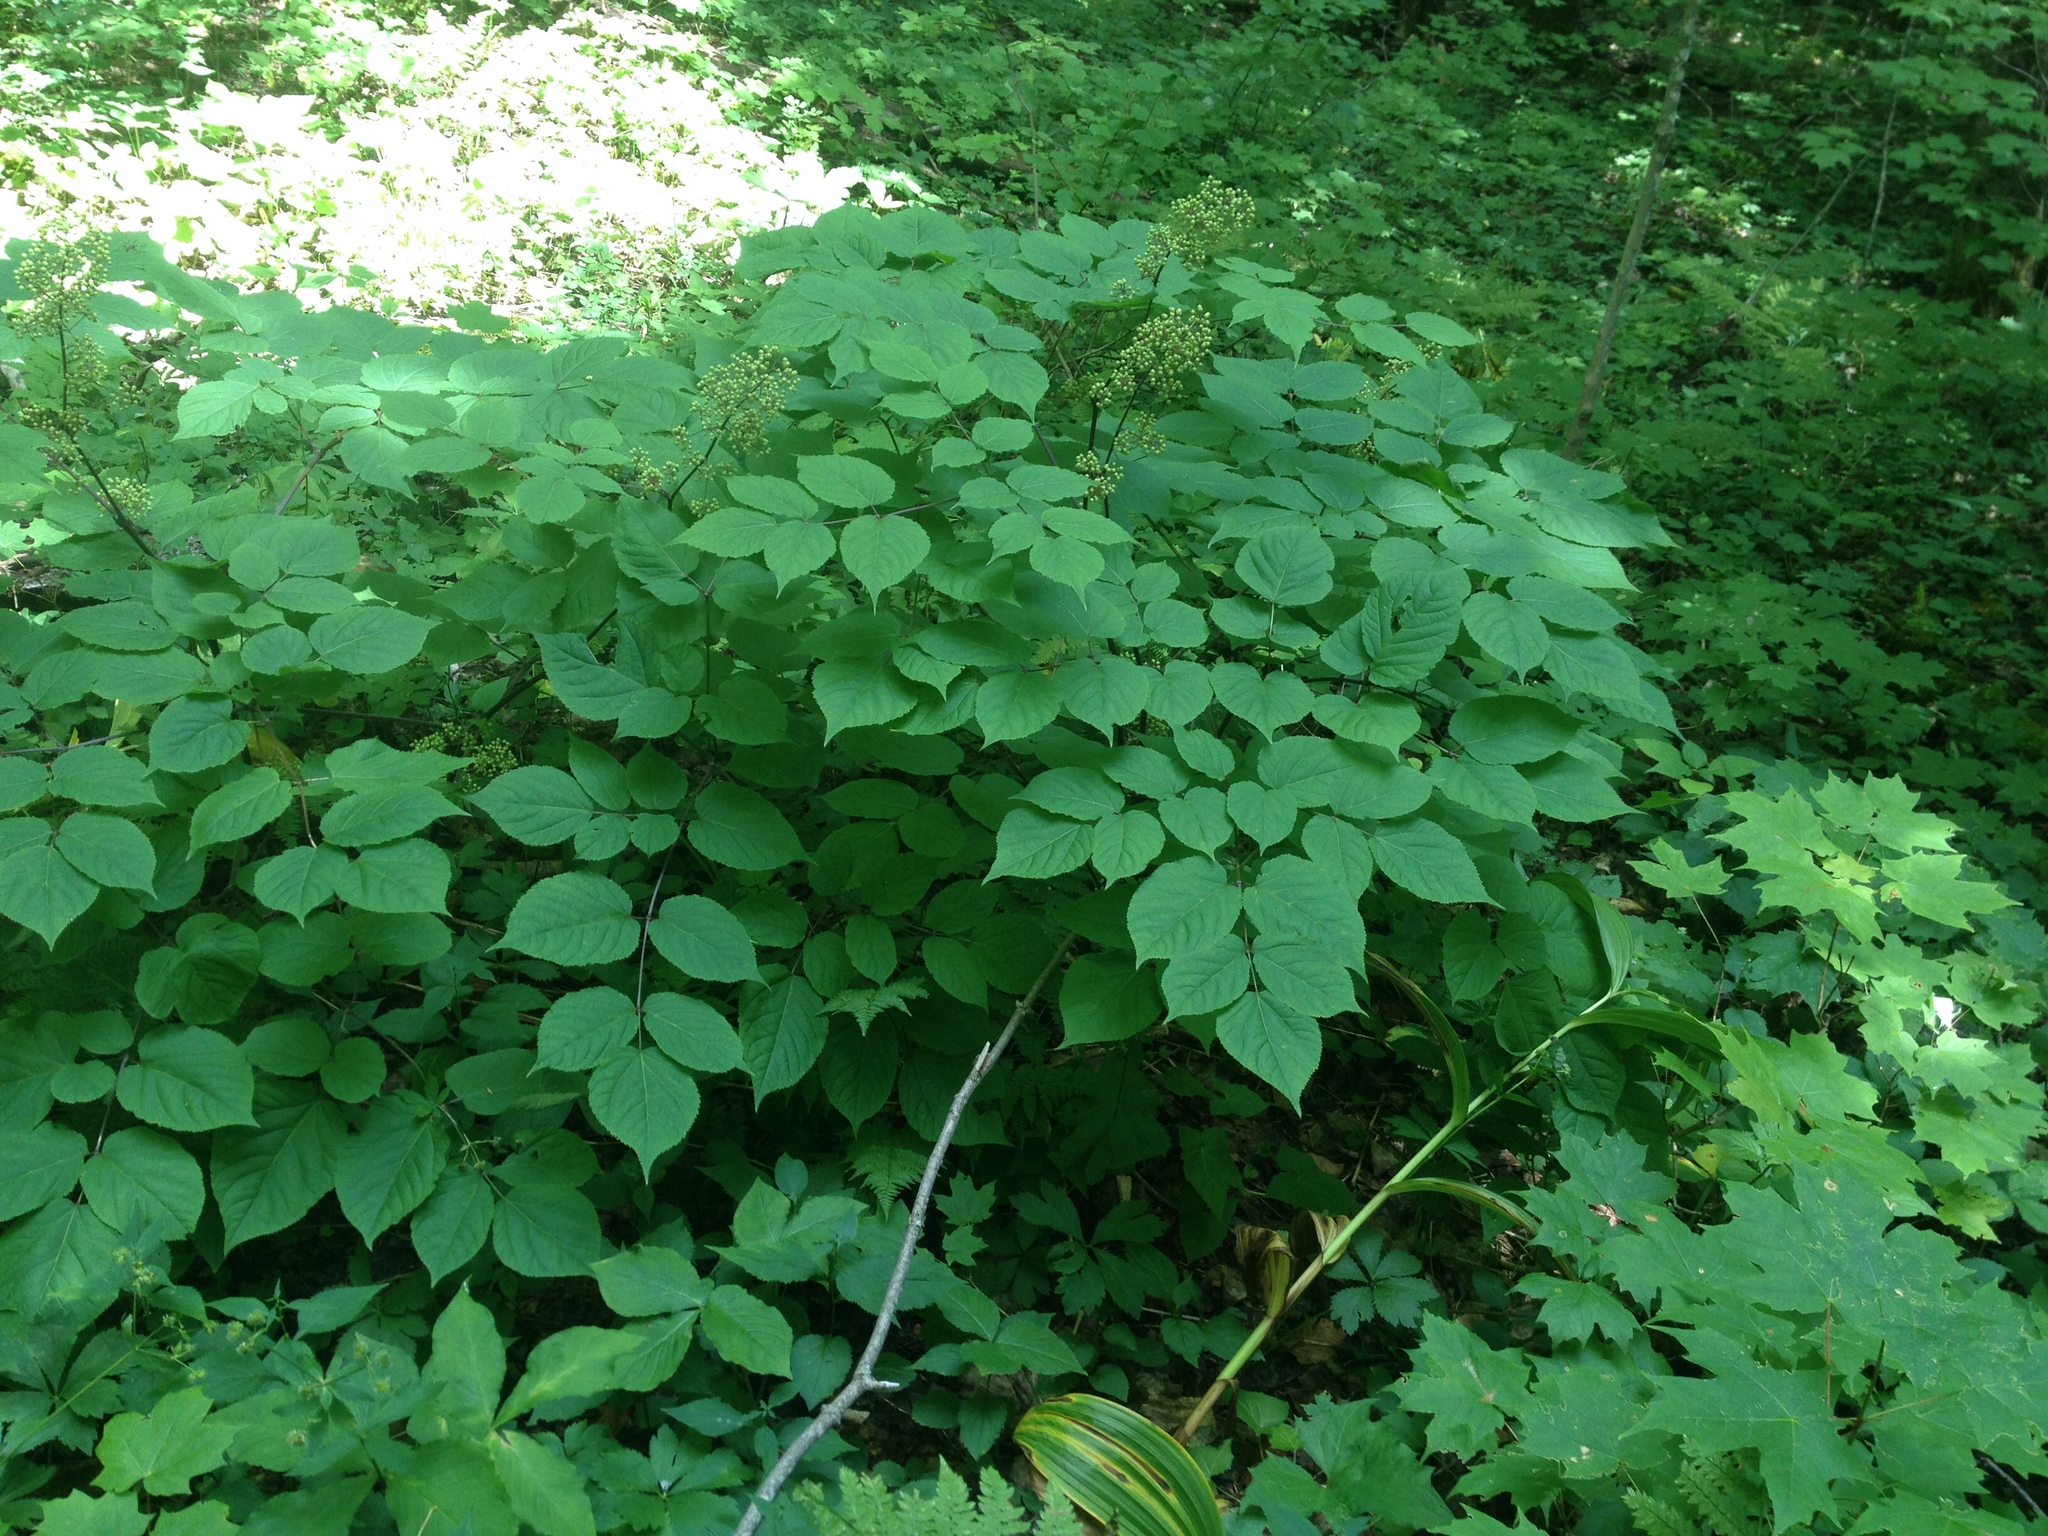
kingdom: Plantae
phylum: Tracheophyta
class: Magnoliopsida
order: Apiales
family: Araliaceae
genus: Aralia
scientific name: Aralia racemosa
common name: American-spikenard
